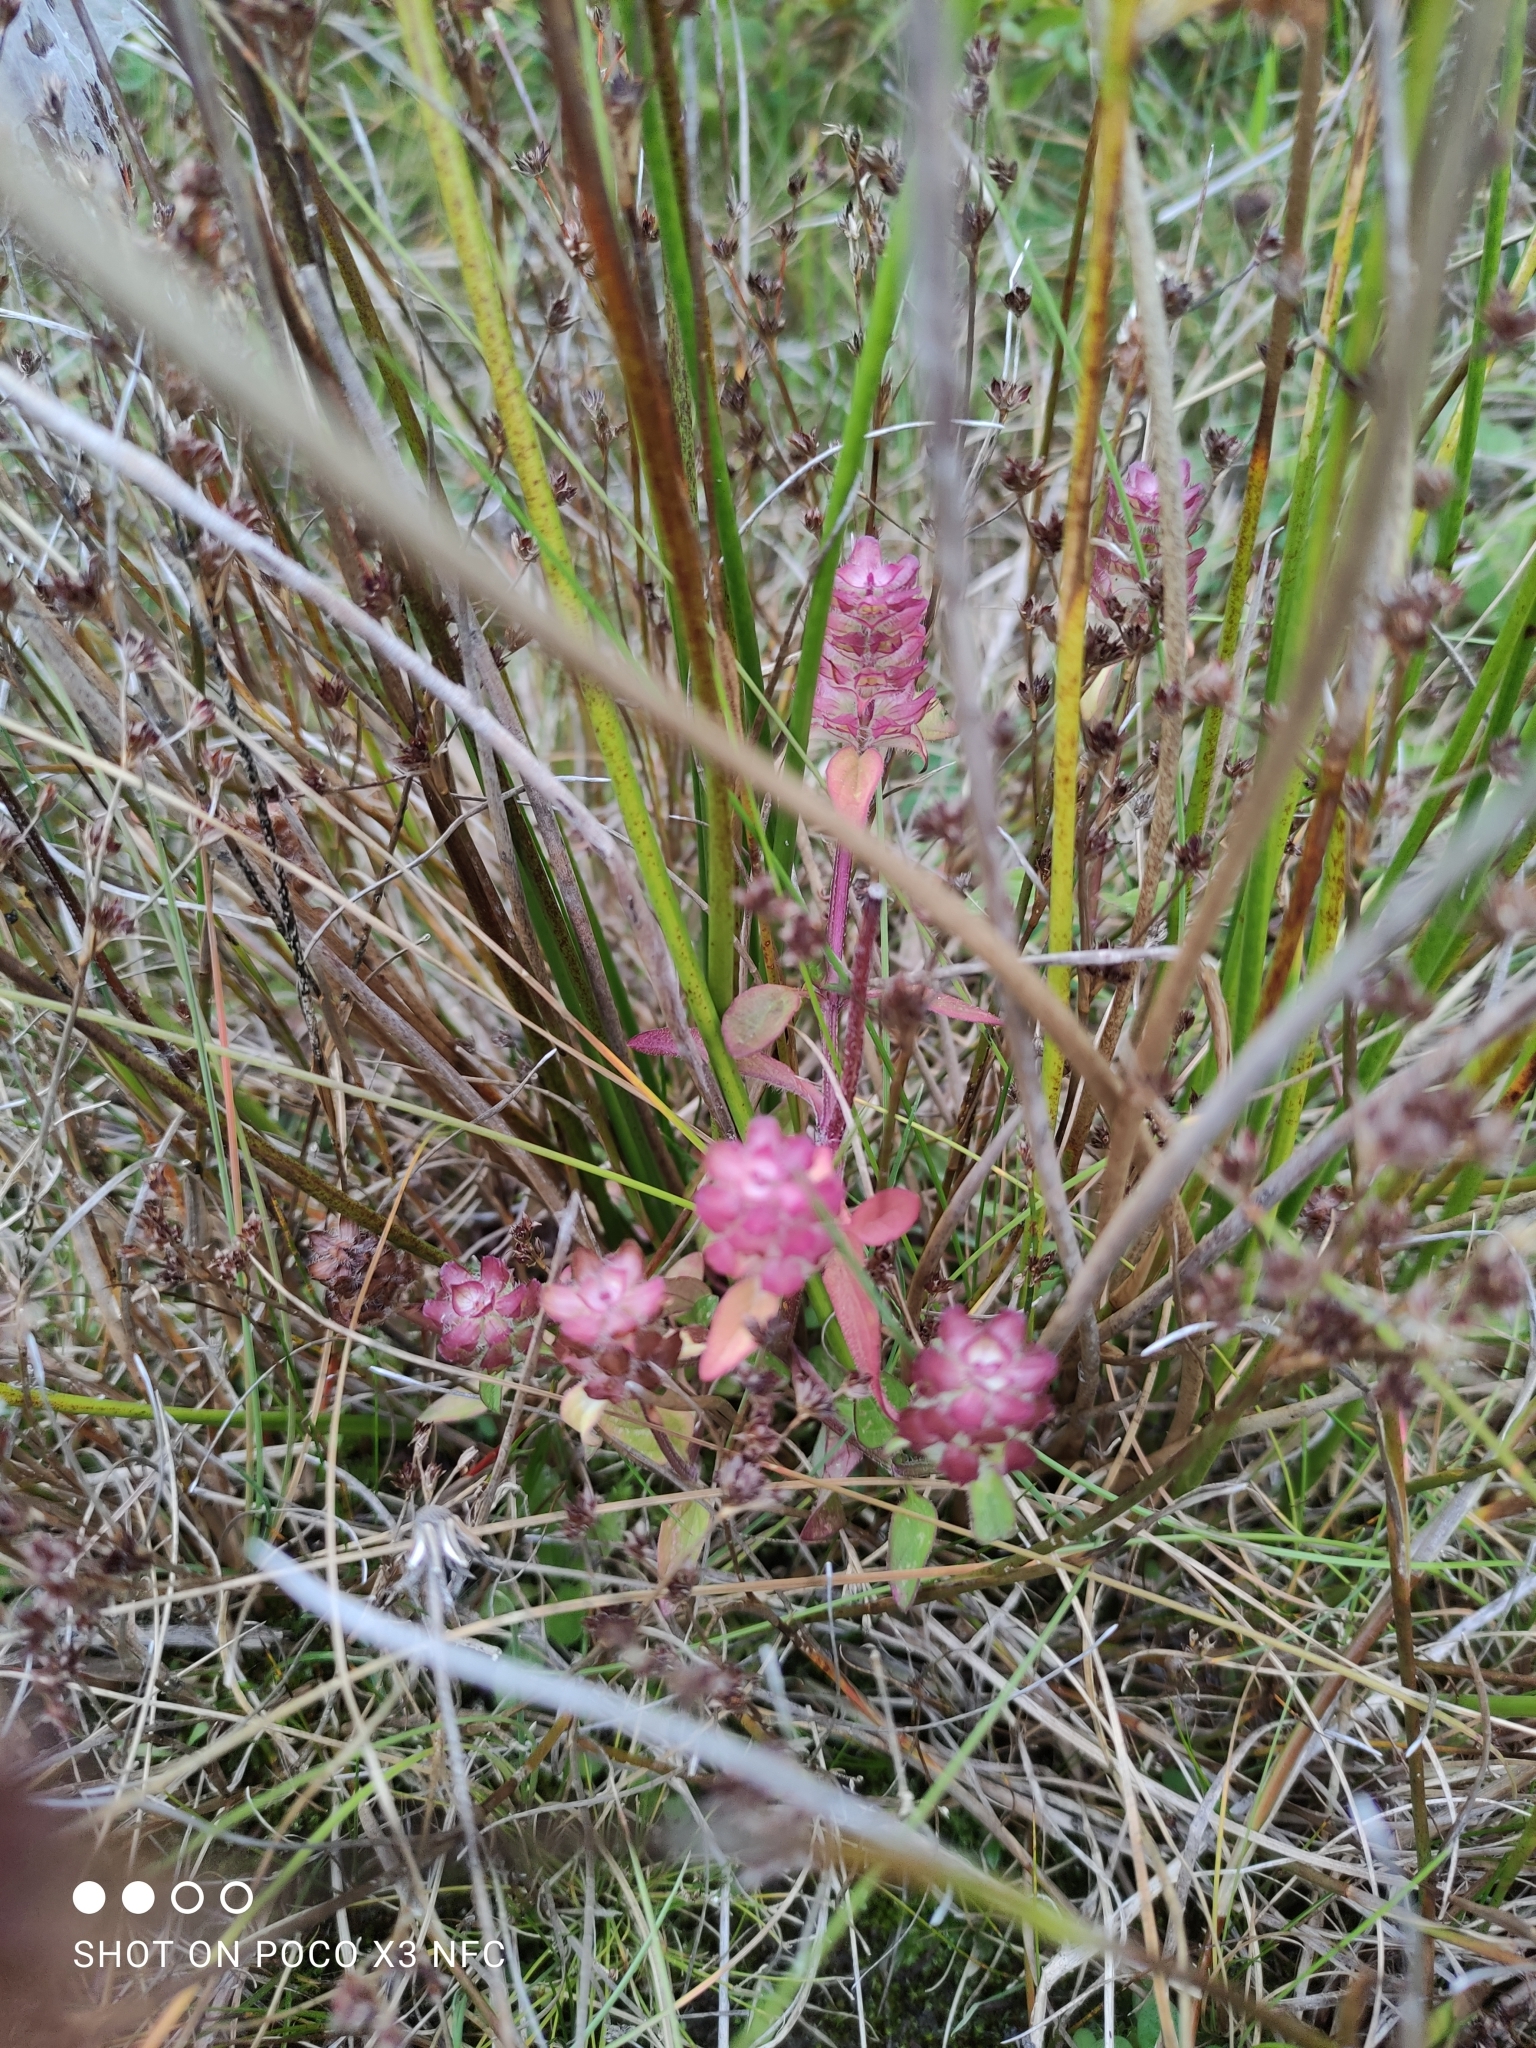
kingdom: Plantae
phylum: Tracheophyta
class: Magnoliopsida
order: Lamiales
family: Lamiaceae
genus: Prunella
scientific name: Prunella vulgaris
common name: Heal-all
